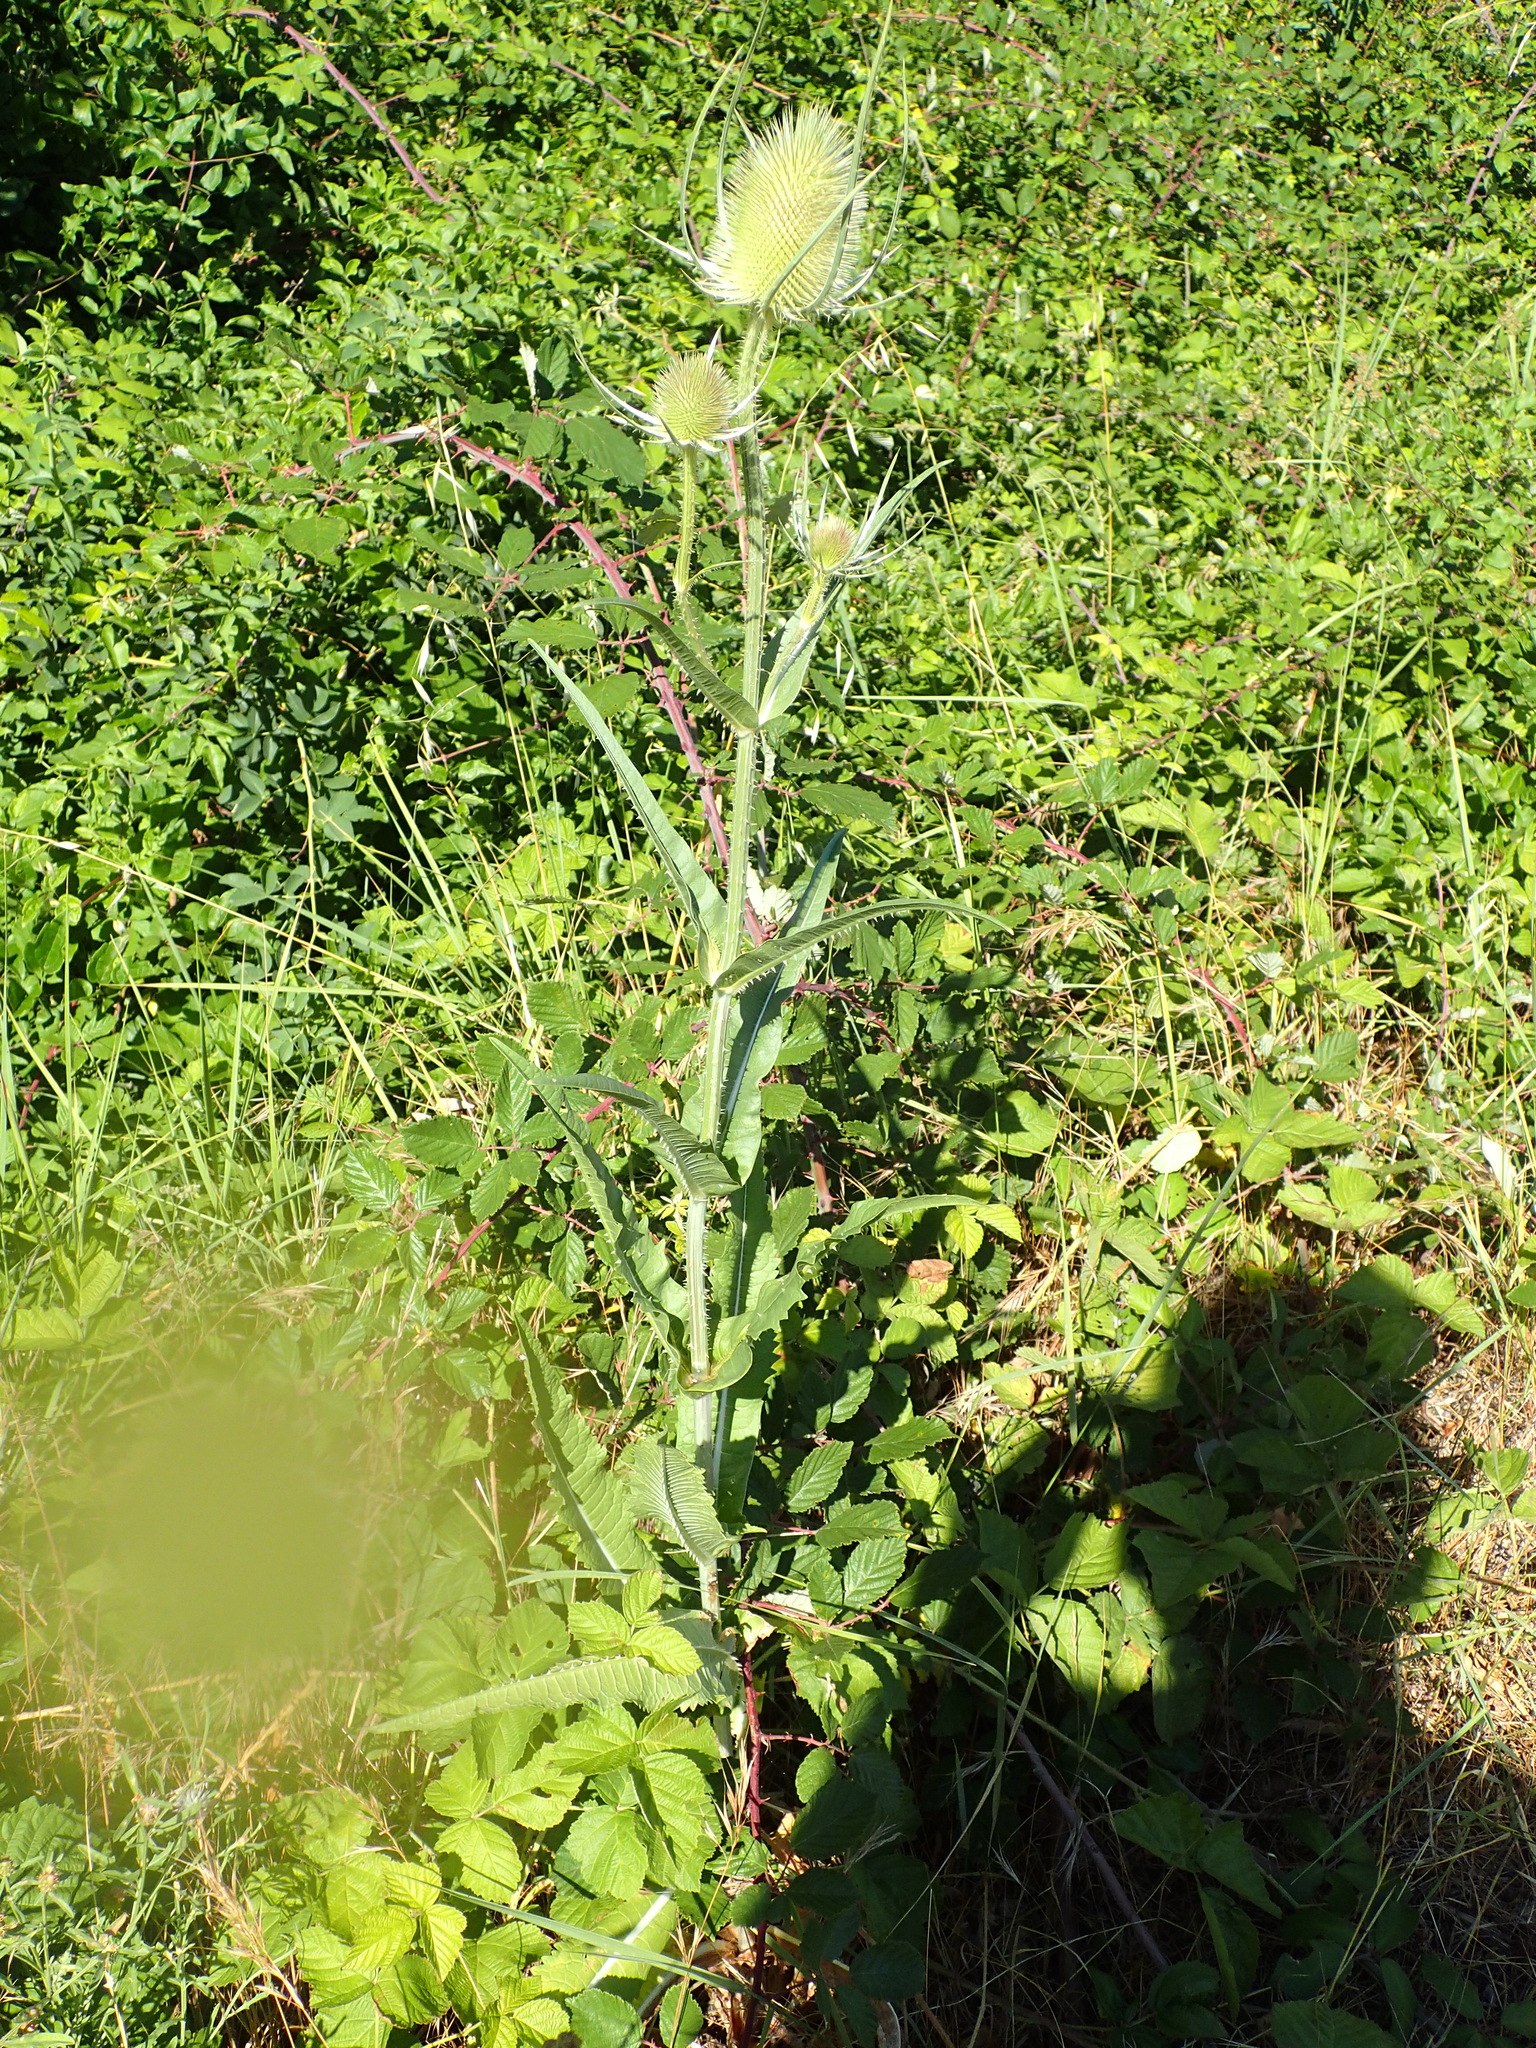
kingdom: Plantae
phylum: Tracheophyta
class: Magnoliopsida
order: Dipsacales
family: Caprifoliaceae
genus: Dipsacus
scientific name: Dipsacus fullonum
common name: Teasel
